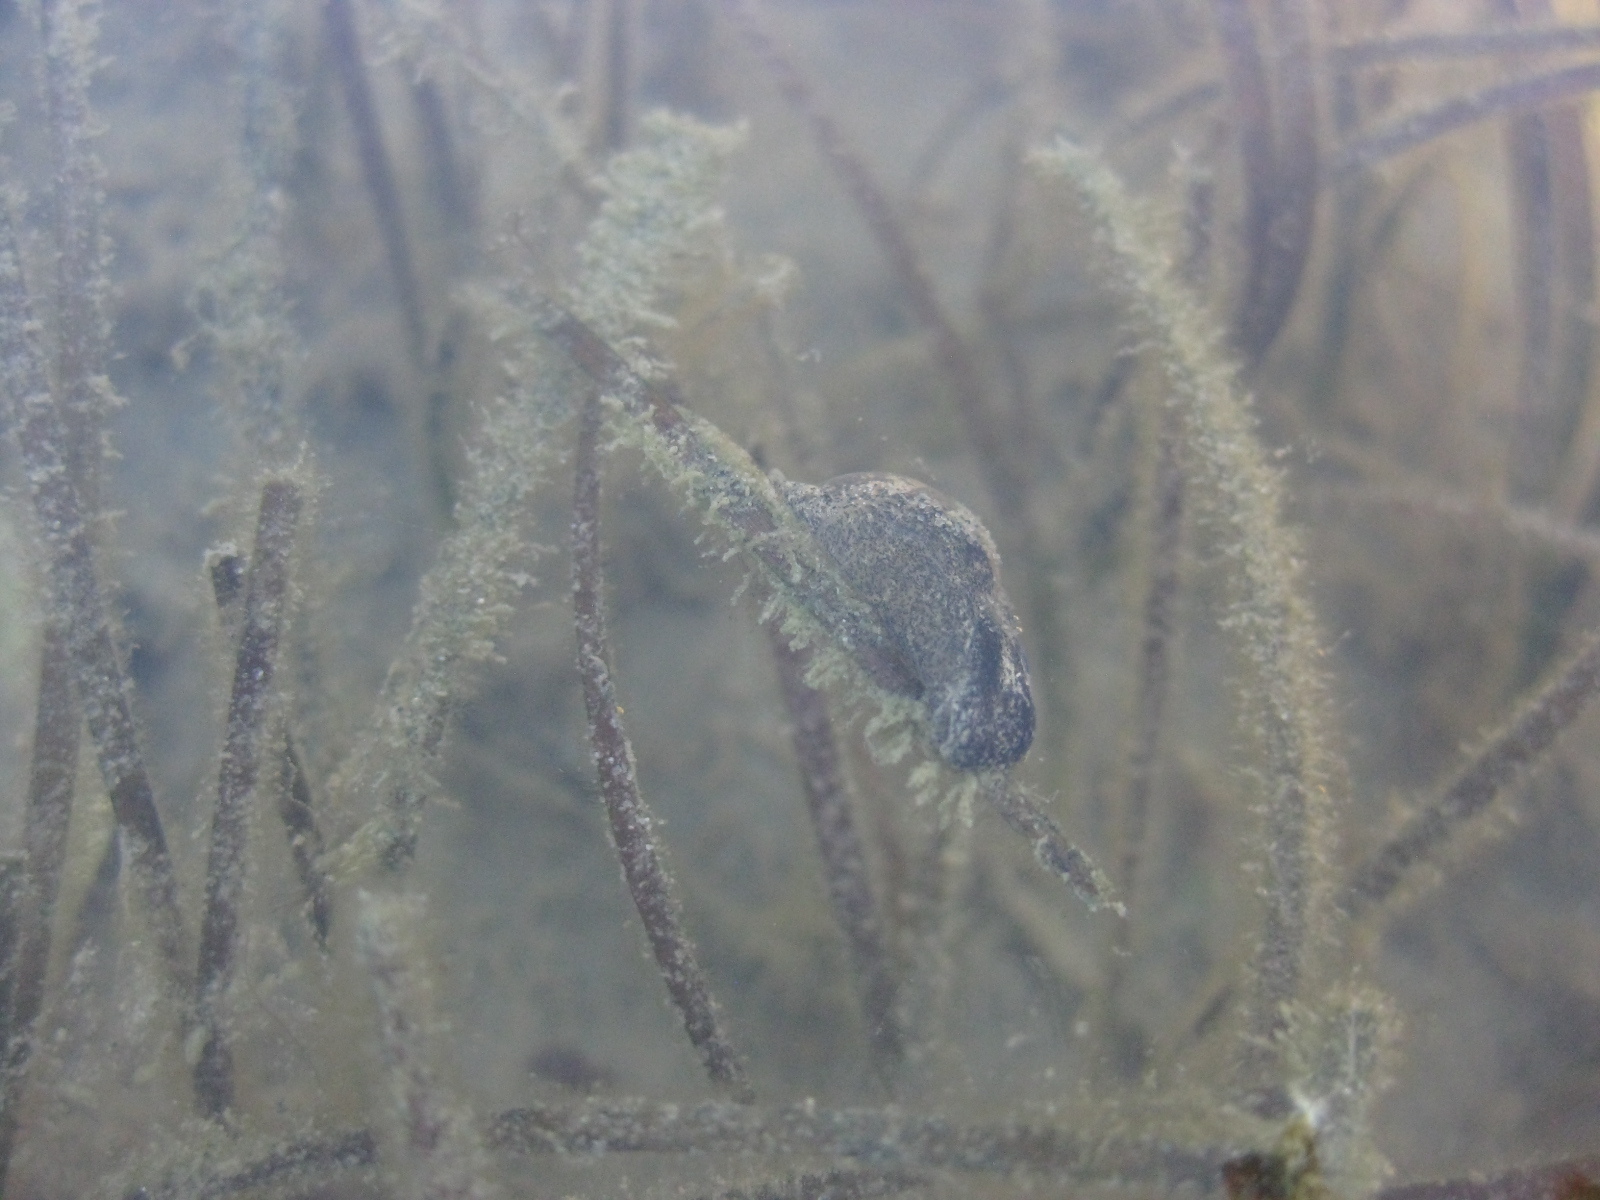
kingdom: Animalia
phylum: Mollusca
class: Gastropoda
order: Cephalaspidea
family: Haminoeidae
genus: Papawera
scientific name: Papawera zelandiae
